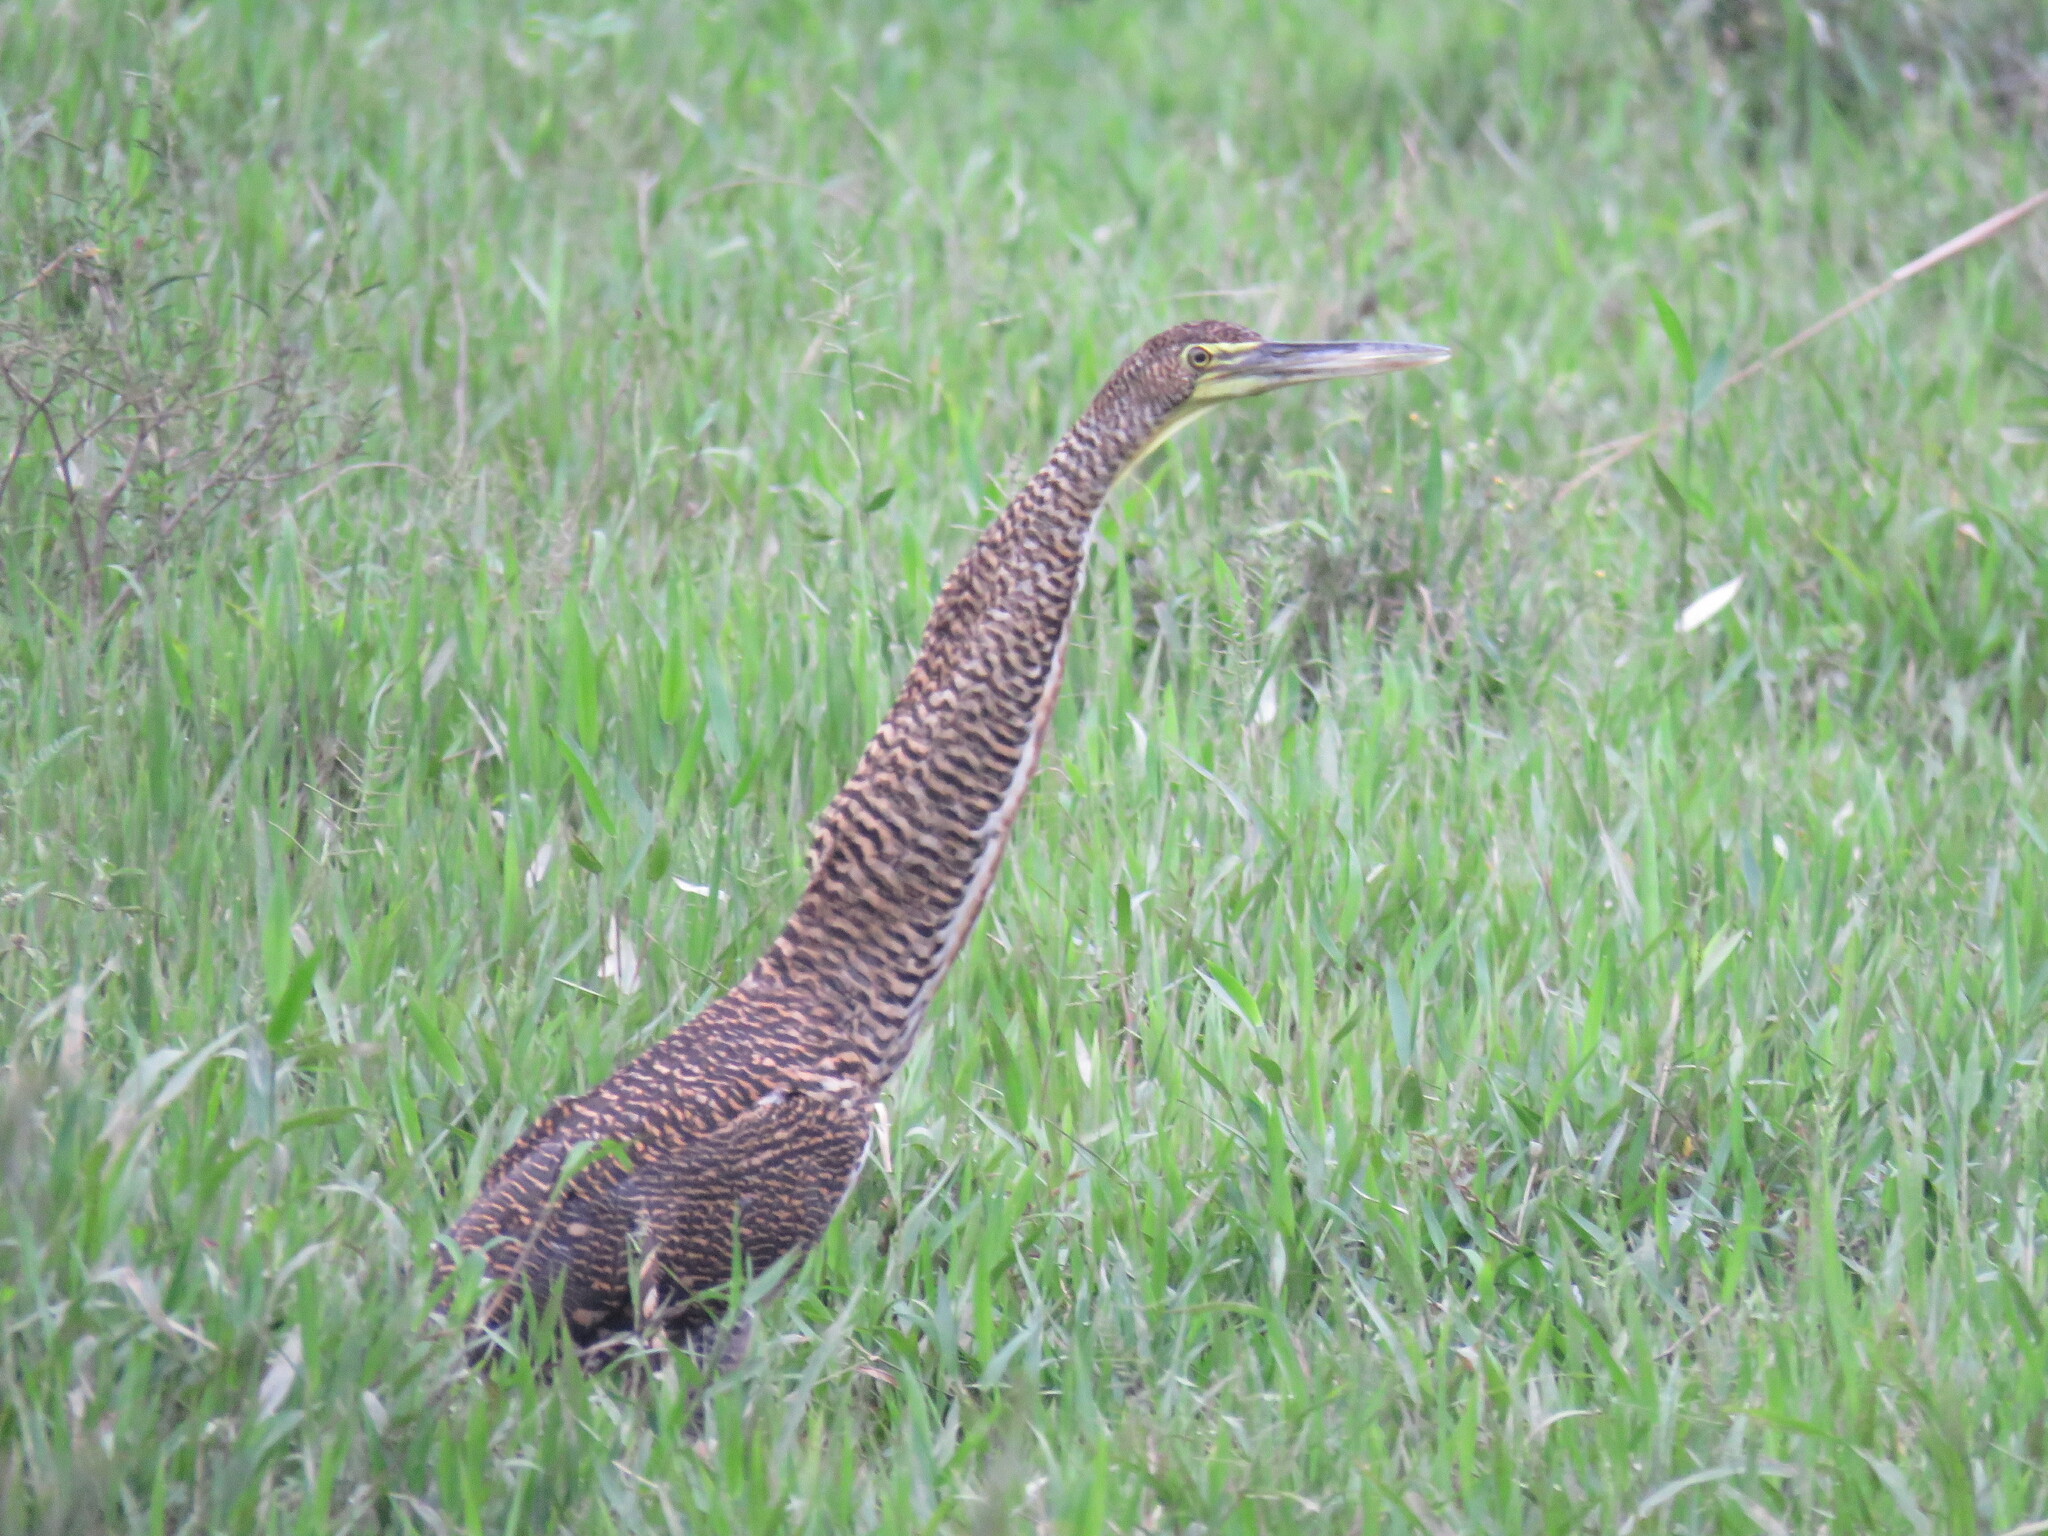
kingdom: Animalia
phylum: Chordata
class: Aves
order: Pelecaniformes
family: Ardeidae
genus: Tigrisoma
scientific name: Tigrisoma mexicanum
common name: Bare-throated tiger-heron
